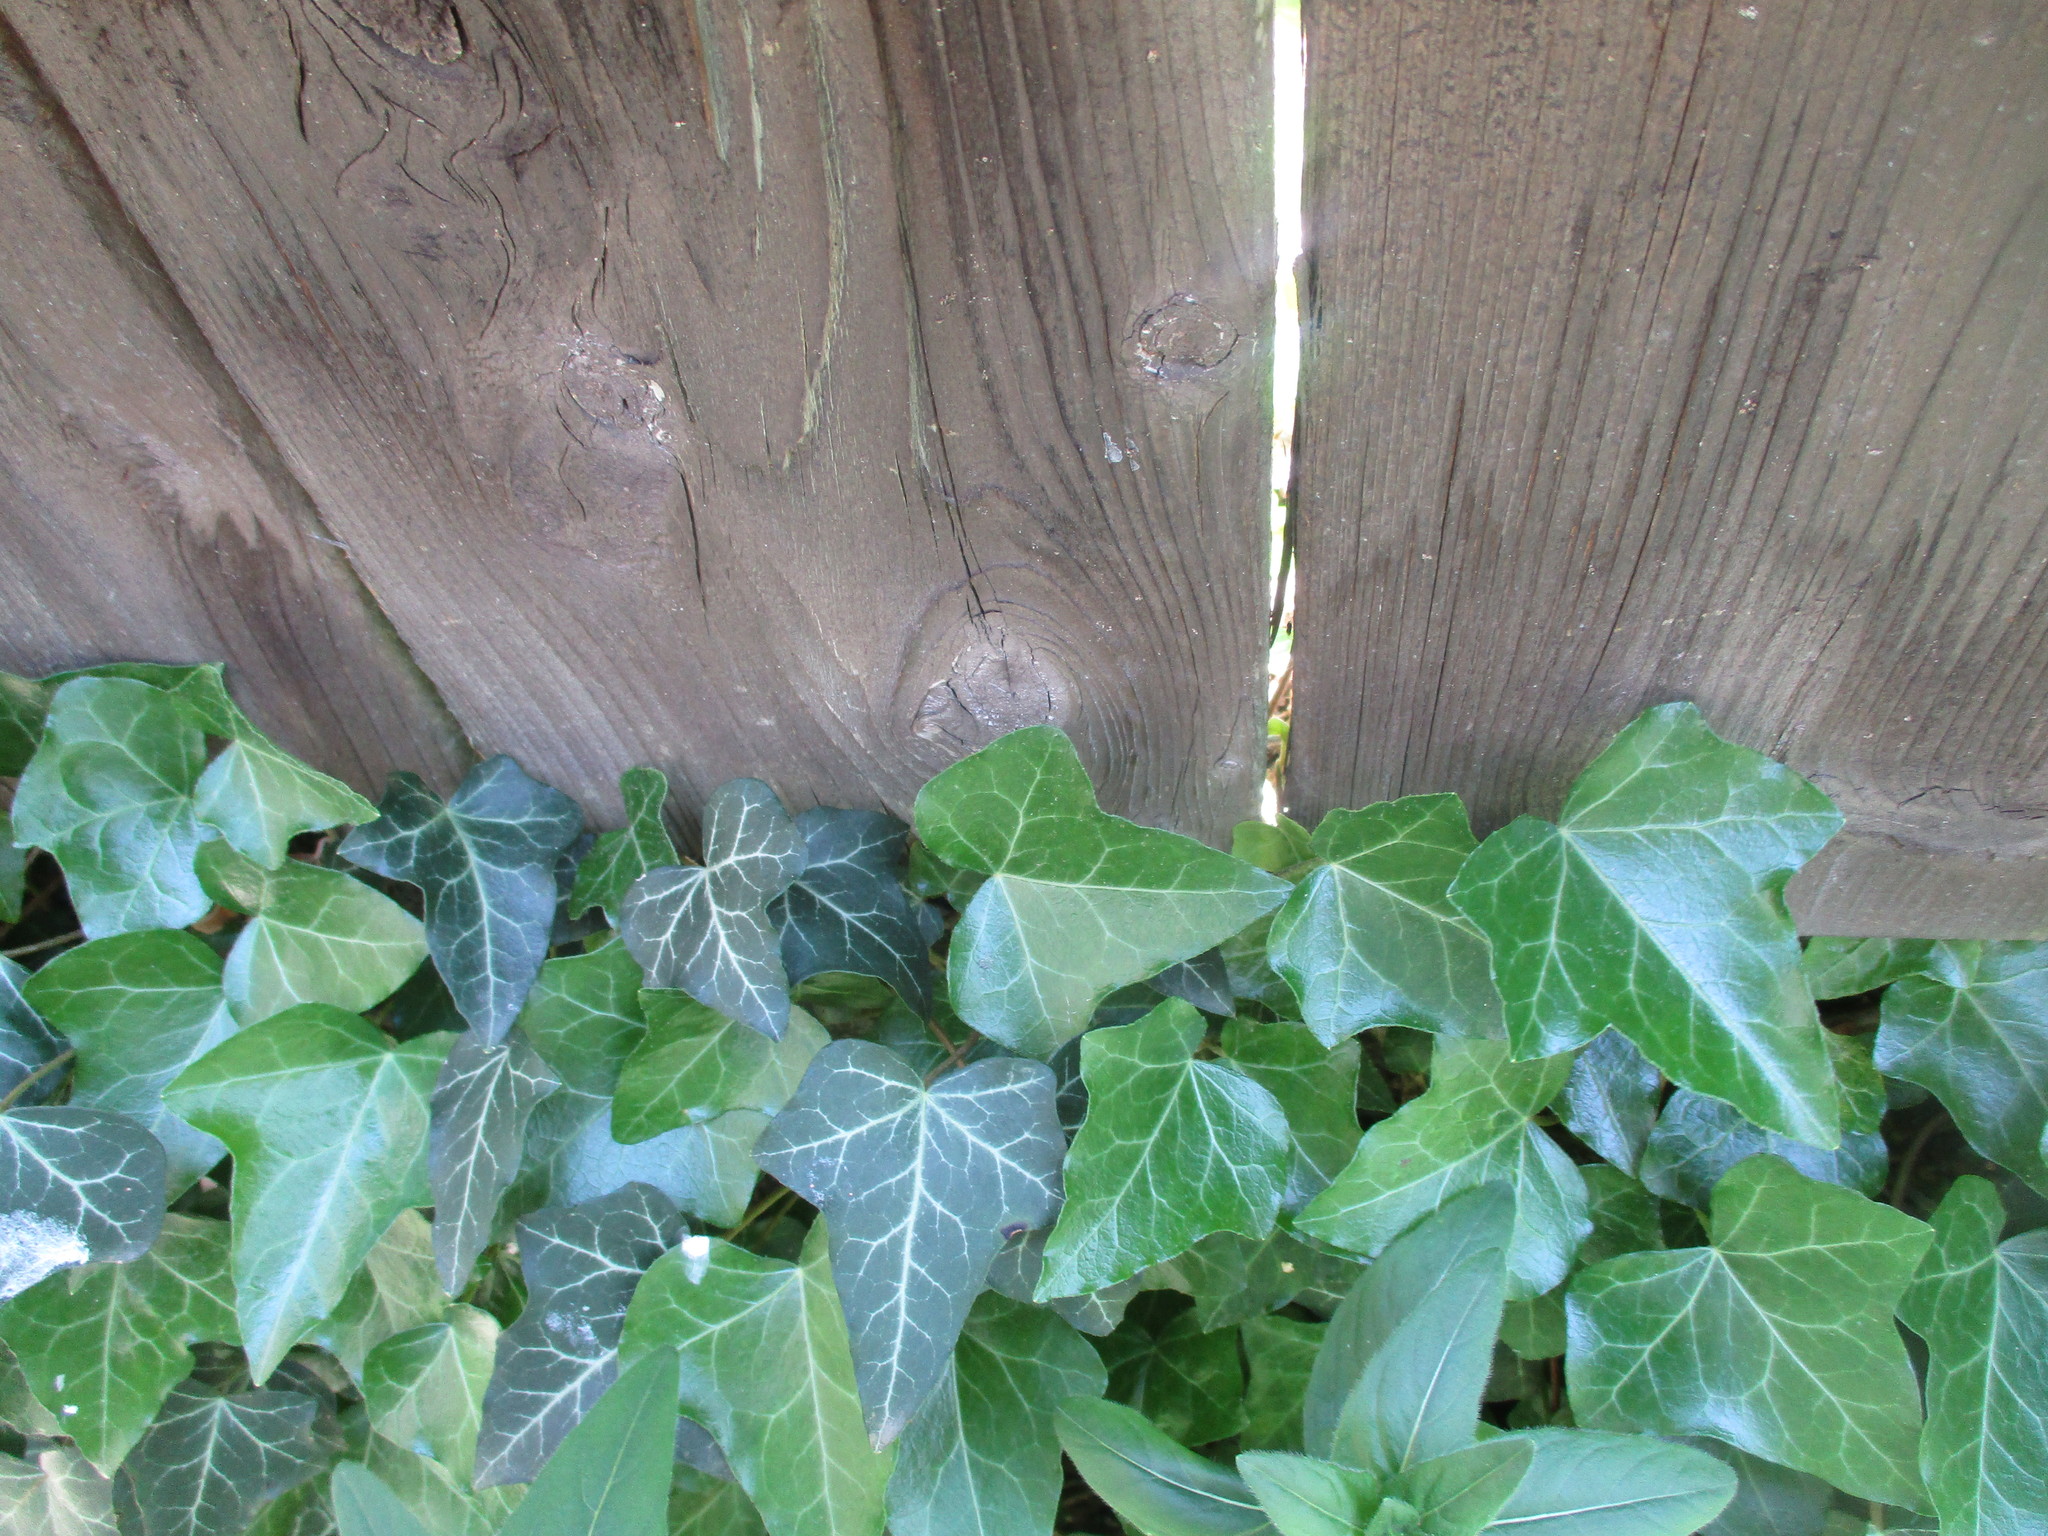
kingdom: Plantae
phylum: Tracheophyta
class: Magnoliopsida
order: Apiales
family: Araliaceae
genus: Hedera
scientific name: Hedera helix
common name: Ivy
